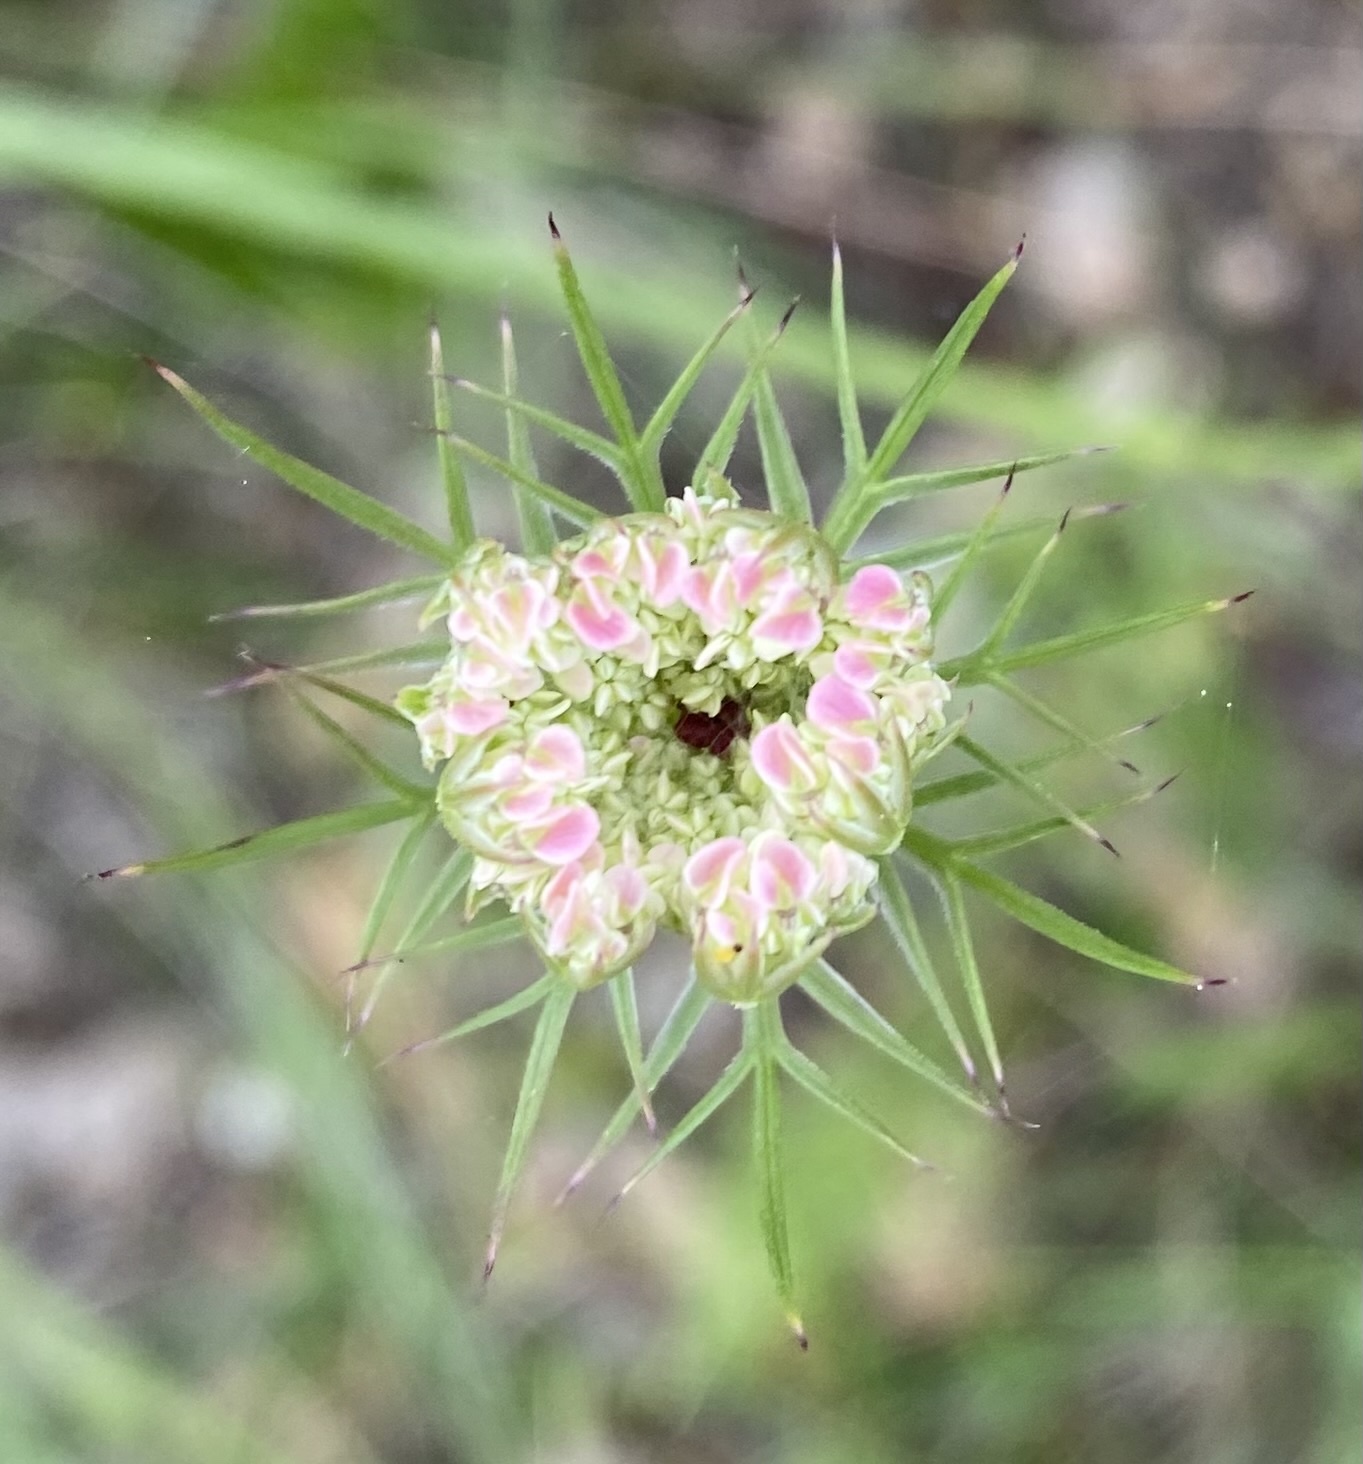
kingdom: Plantae
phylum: Tracheophyta
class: Magnoliopsida
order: Apiales
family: Apiaceae
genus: Daucus
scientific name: Daucus carota
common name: Wild carrot
